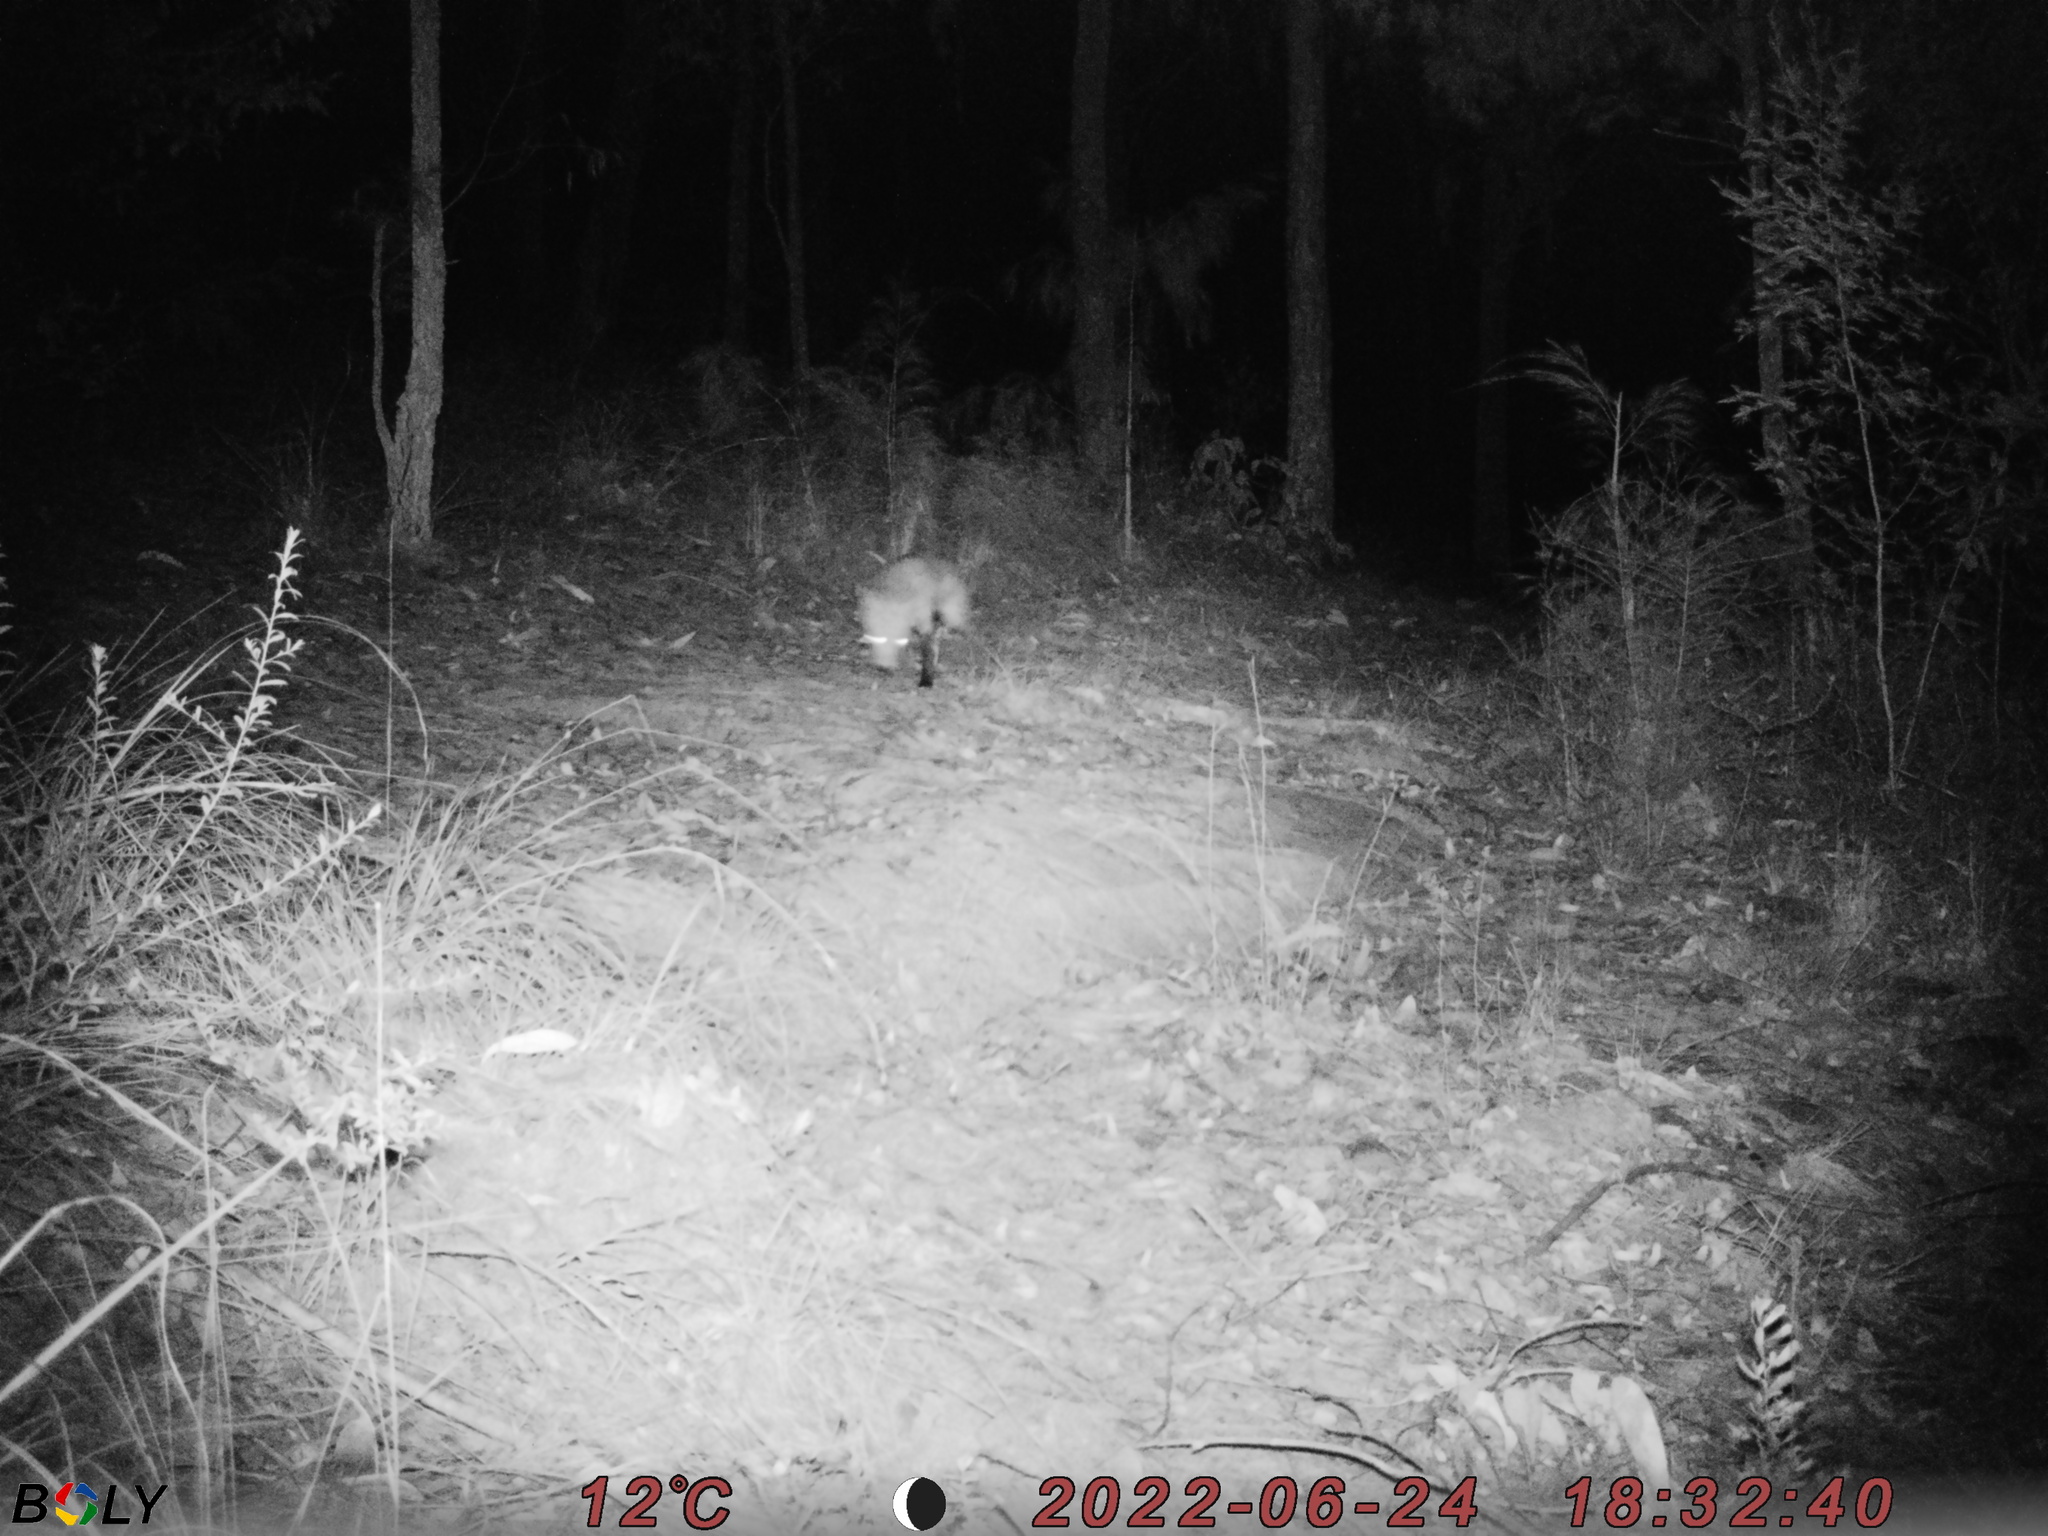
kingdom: Animalia
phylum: Chordata
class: Mammalia
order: Carnivora
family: Canidae
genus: Vulpes
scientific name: Vulpes vulpes
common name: Red fox
